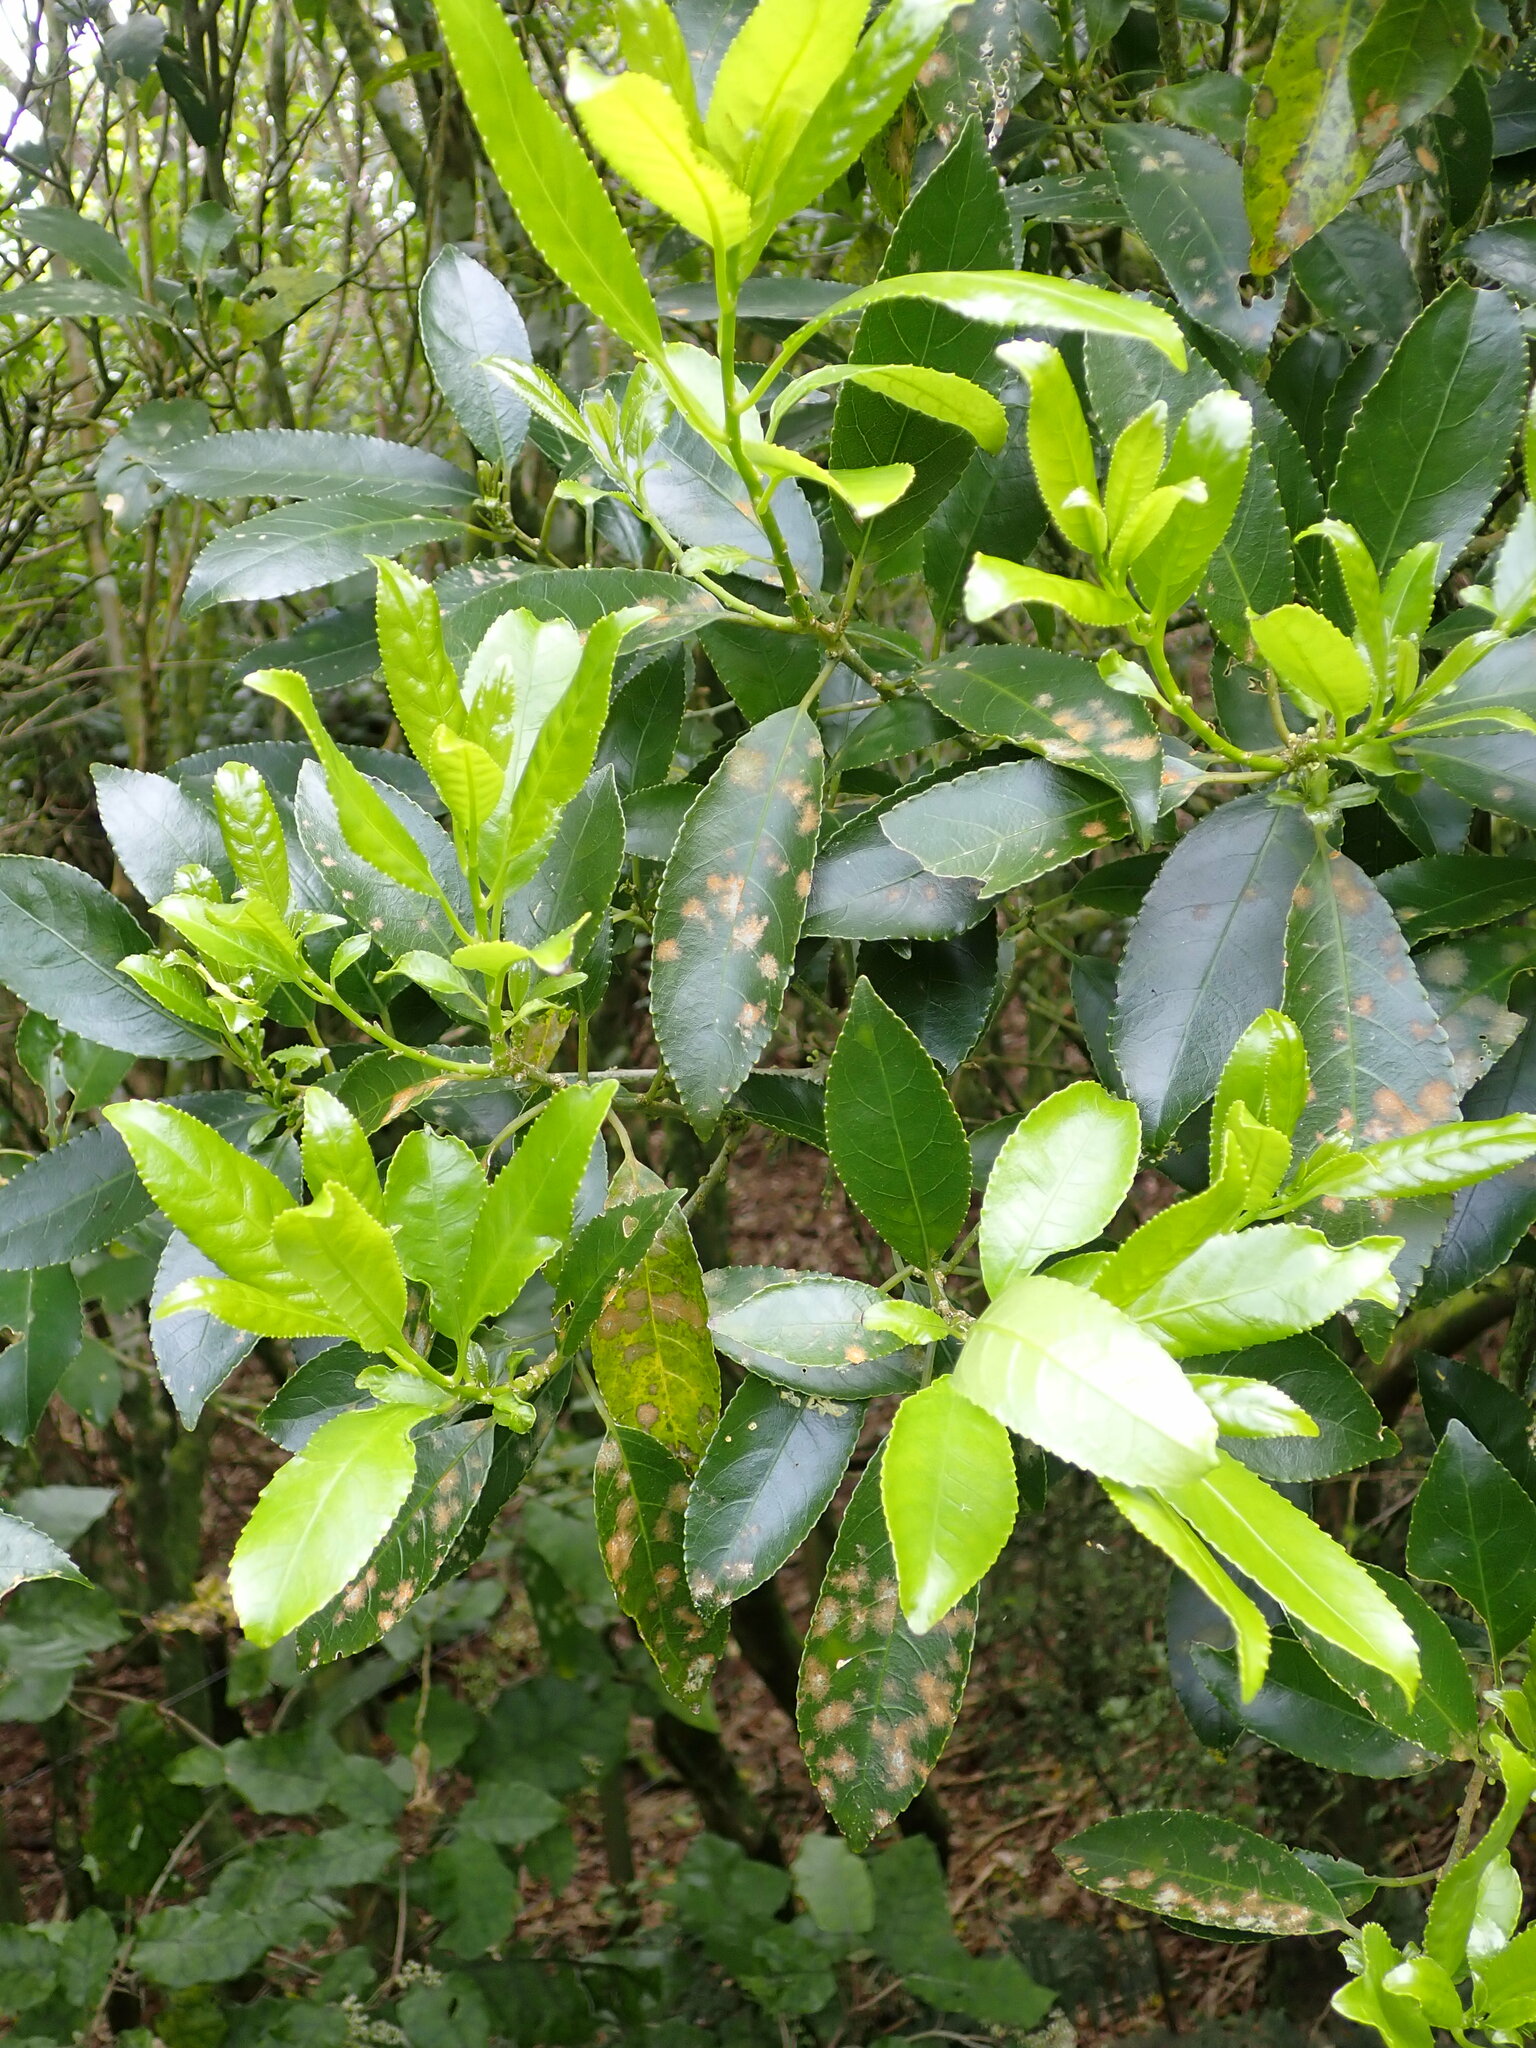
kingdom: Plantae
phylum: Chlorophyta
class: Ulvophyceae
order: Trentepohliales
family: Trentepohliaceae
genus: Cephaleuros
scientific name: Cephaleuros
